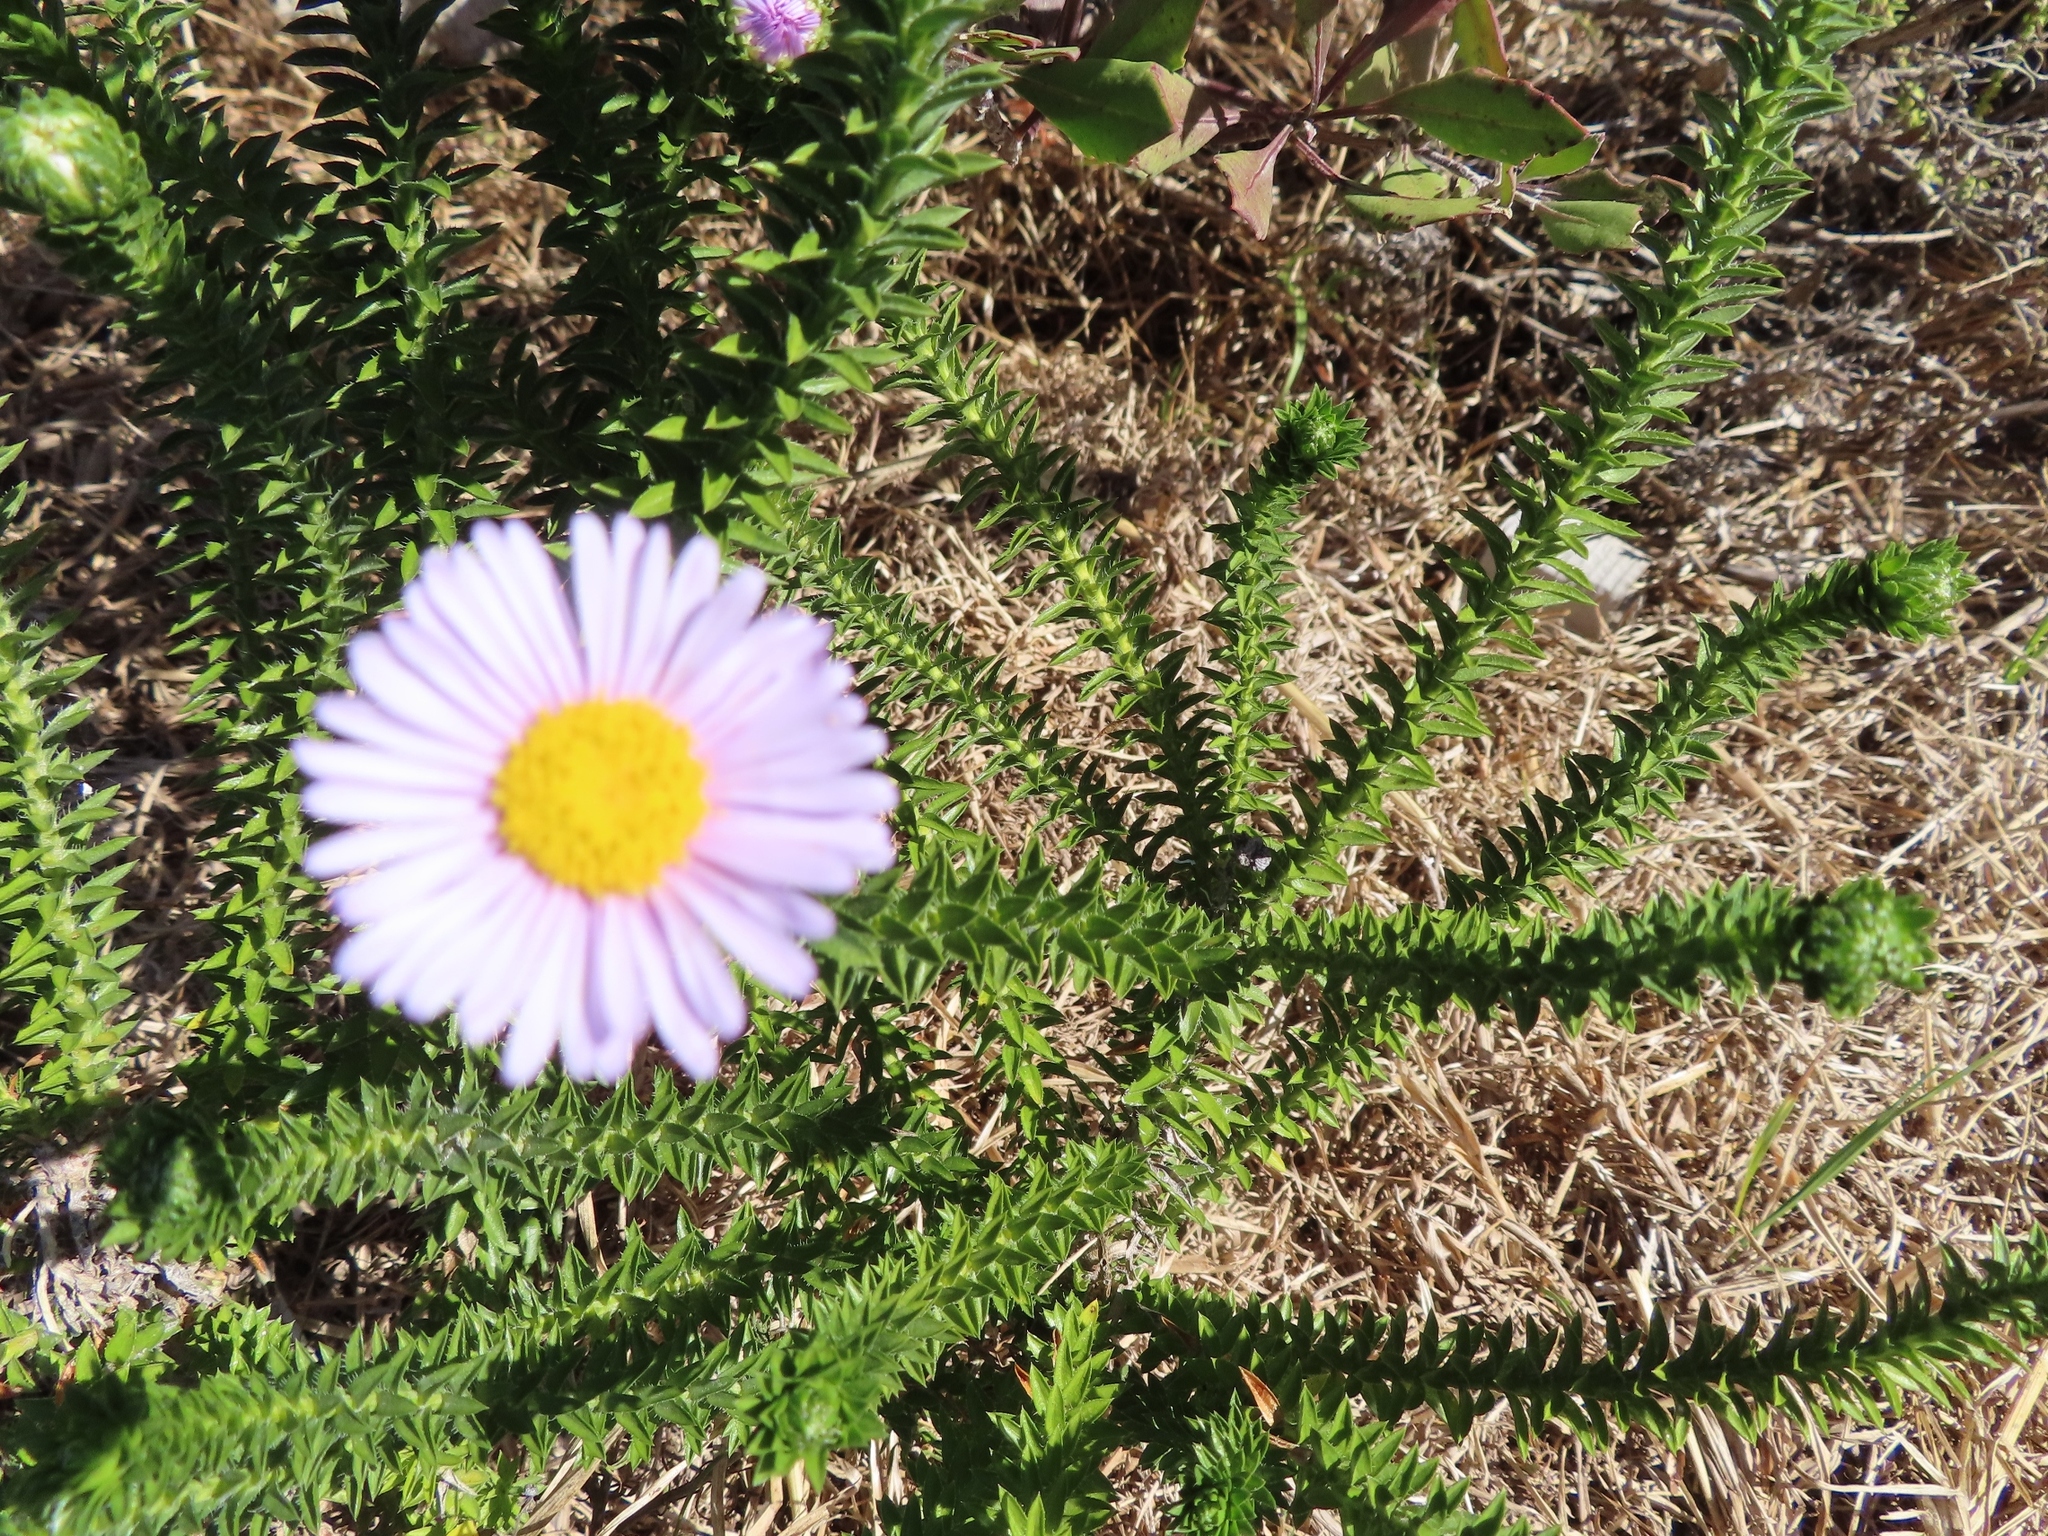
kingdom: Plantae
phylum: Tracheophyta
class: Magnoliopsida
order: Asterales
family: Asteraceae
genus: Felicia
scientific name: Felicia echinata
